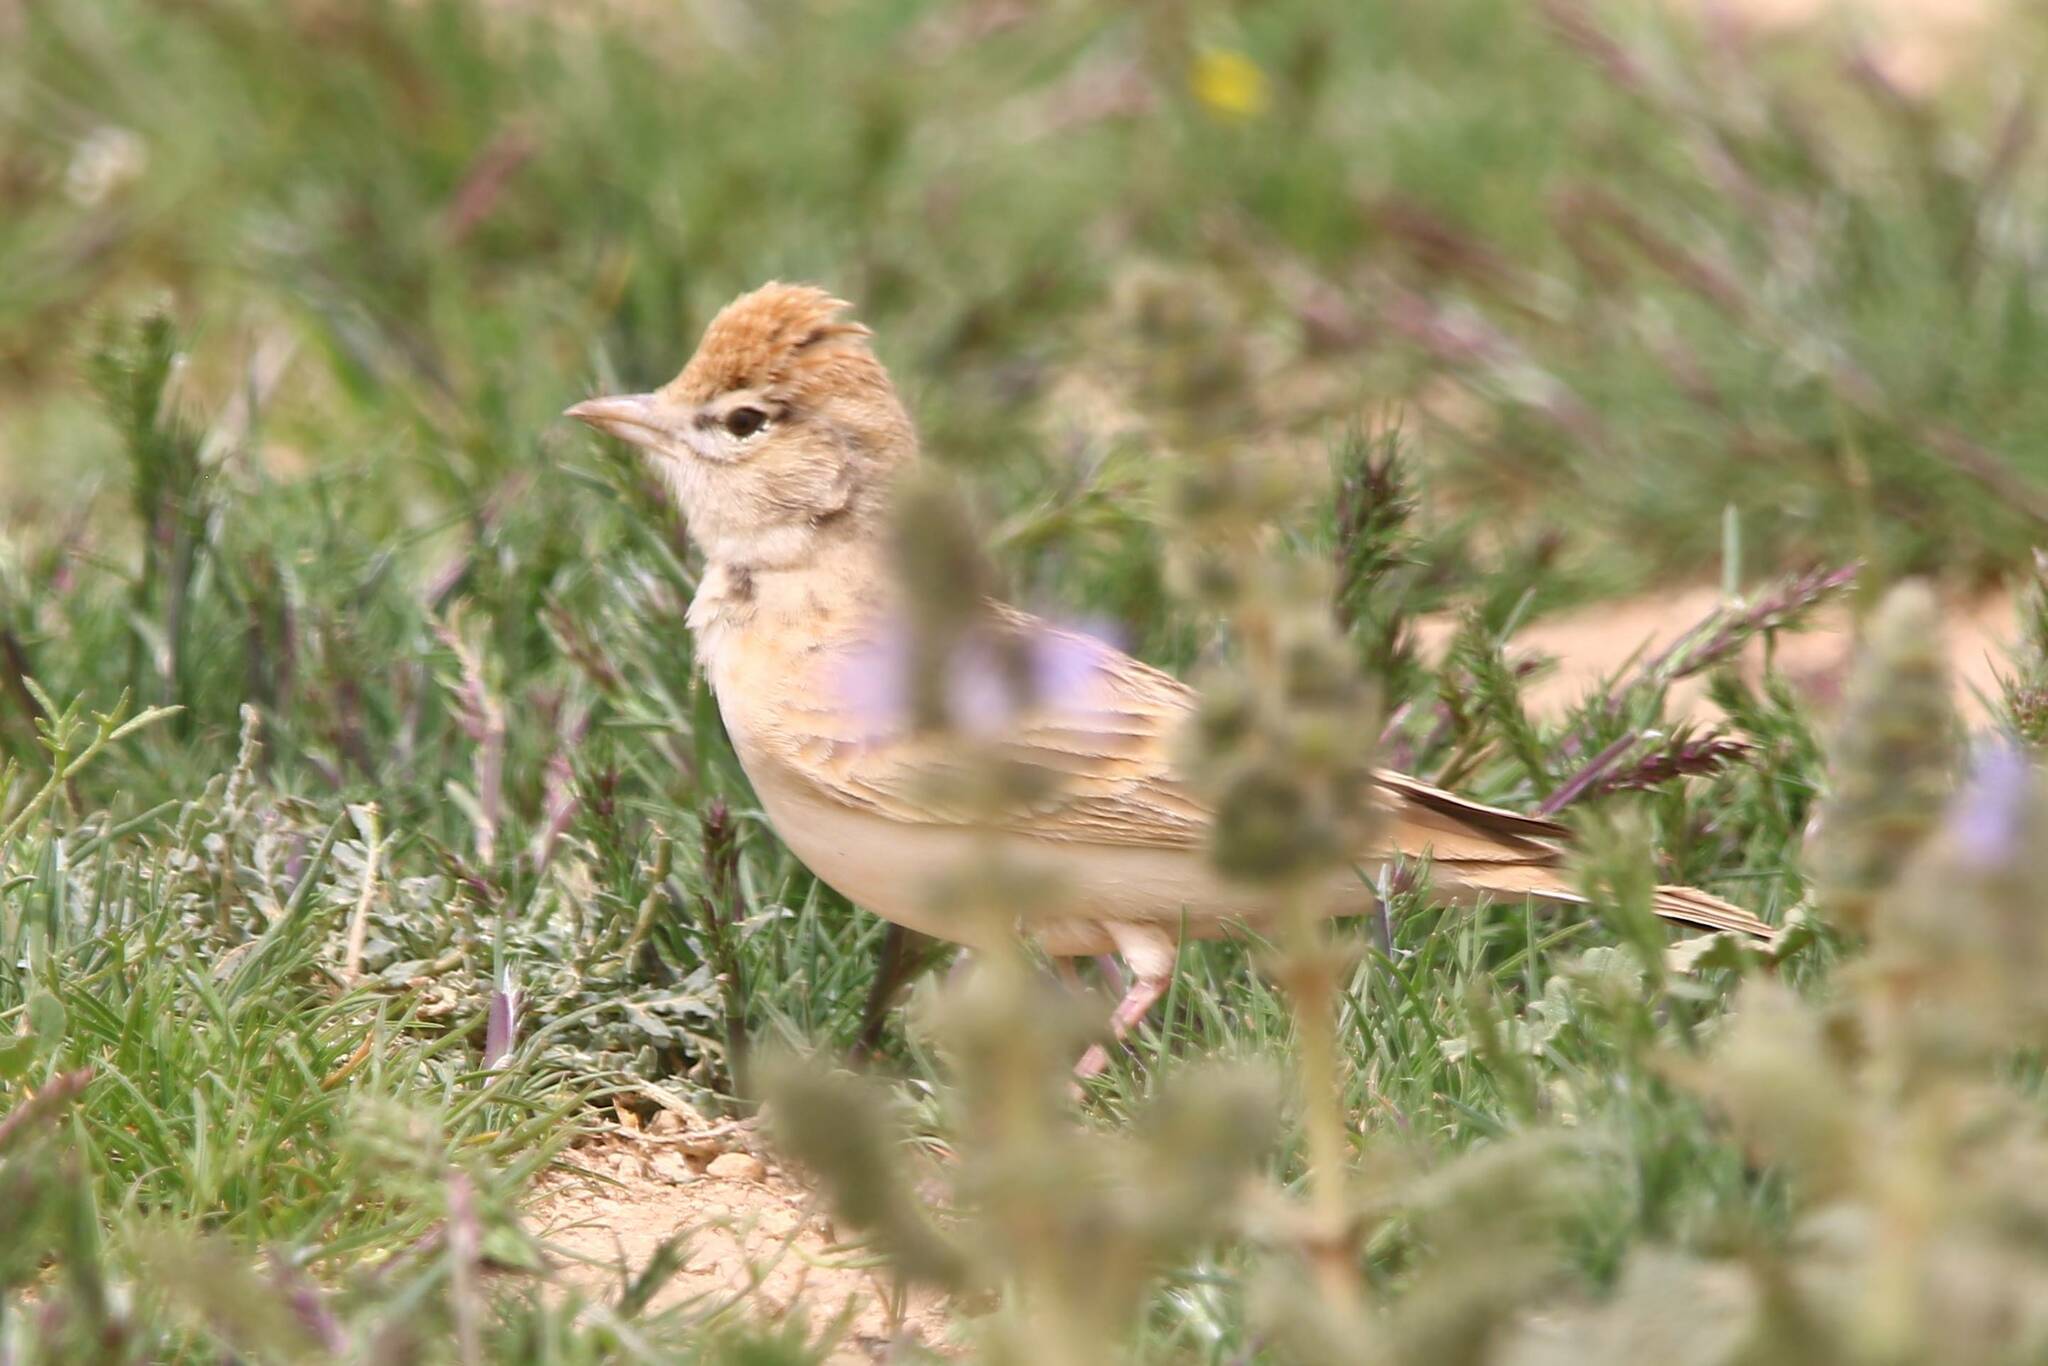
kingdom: Animalia
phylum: Chordata
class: Aves
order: Passeriformes
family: Alaudidae
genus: Calandrella
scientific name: Calandrella brachydactyla
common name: Greater short-toed lark
